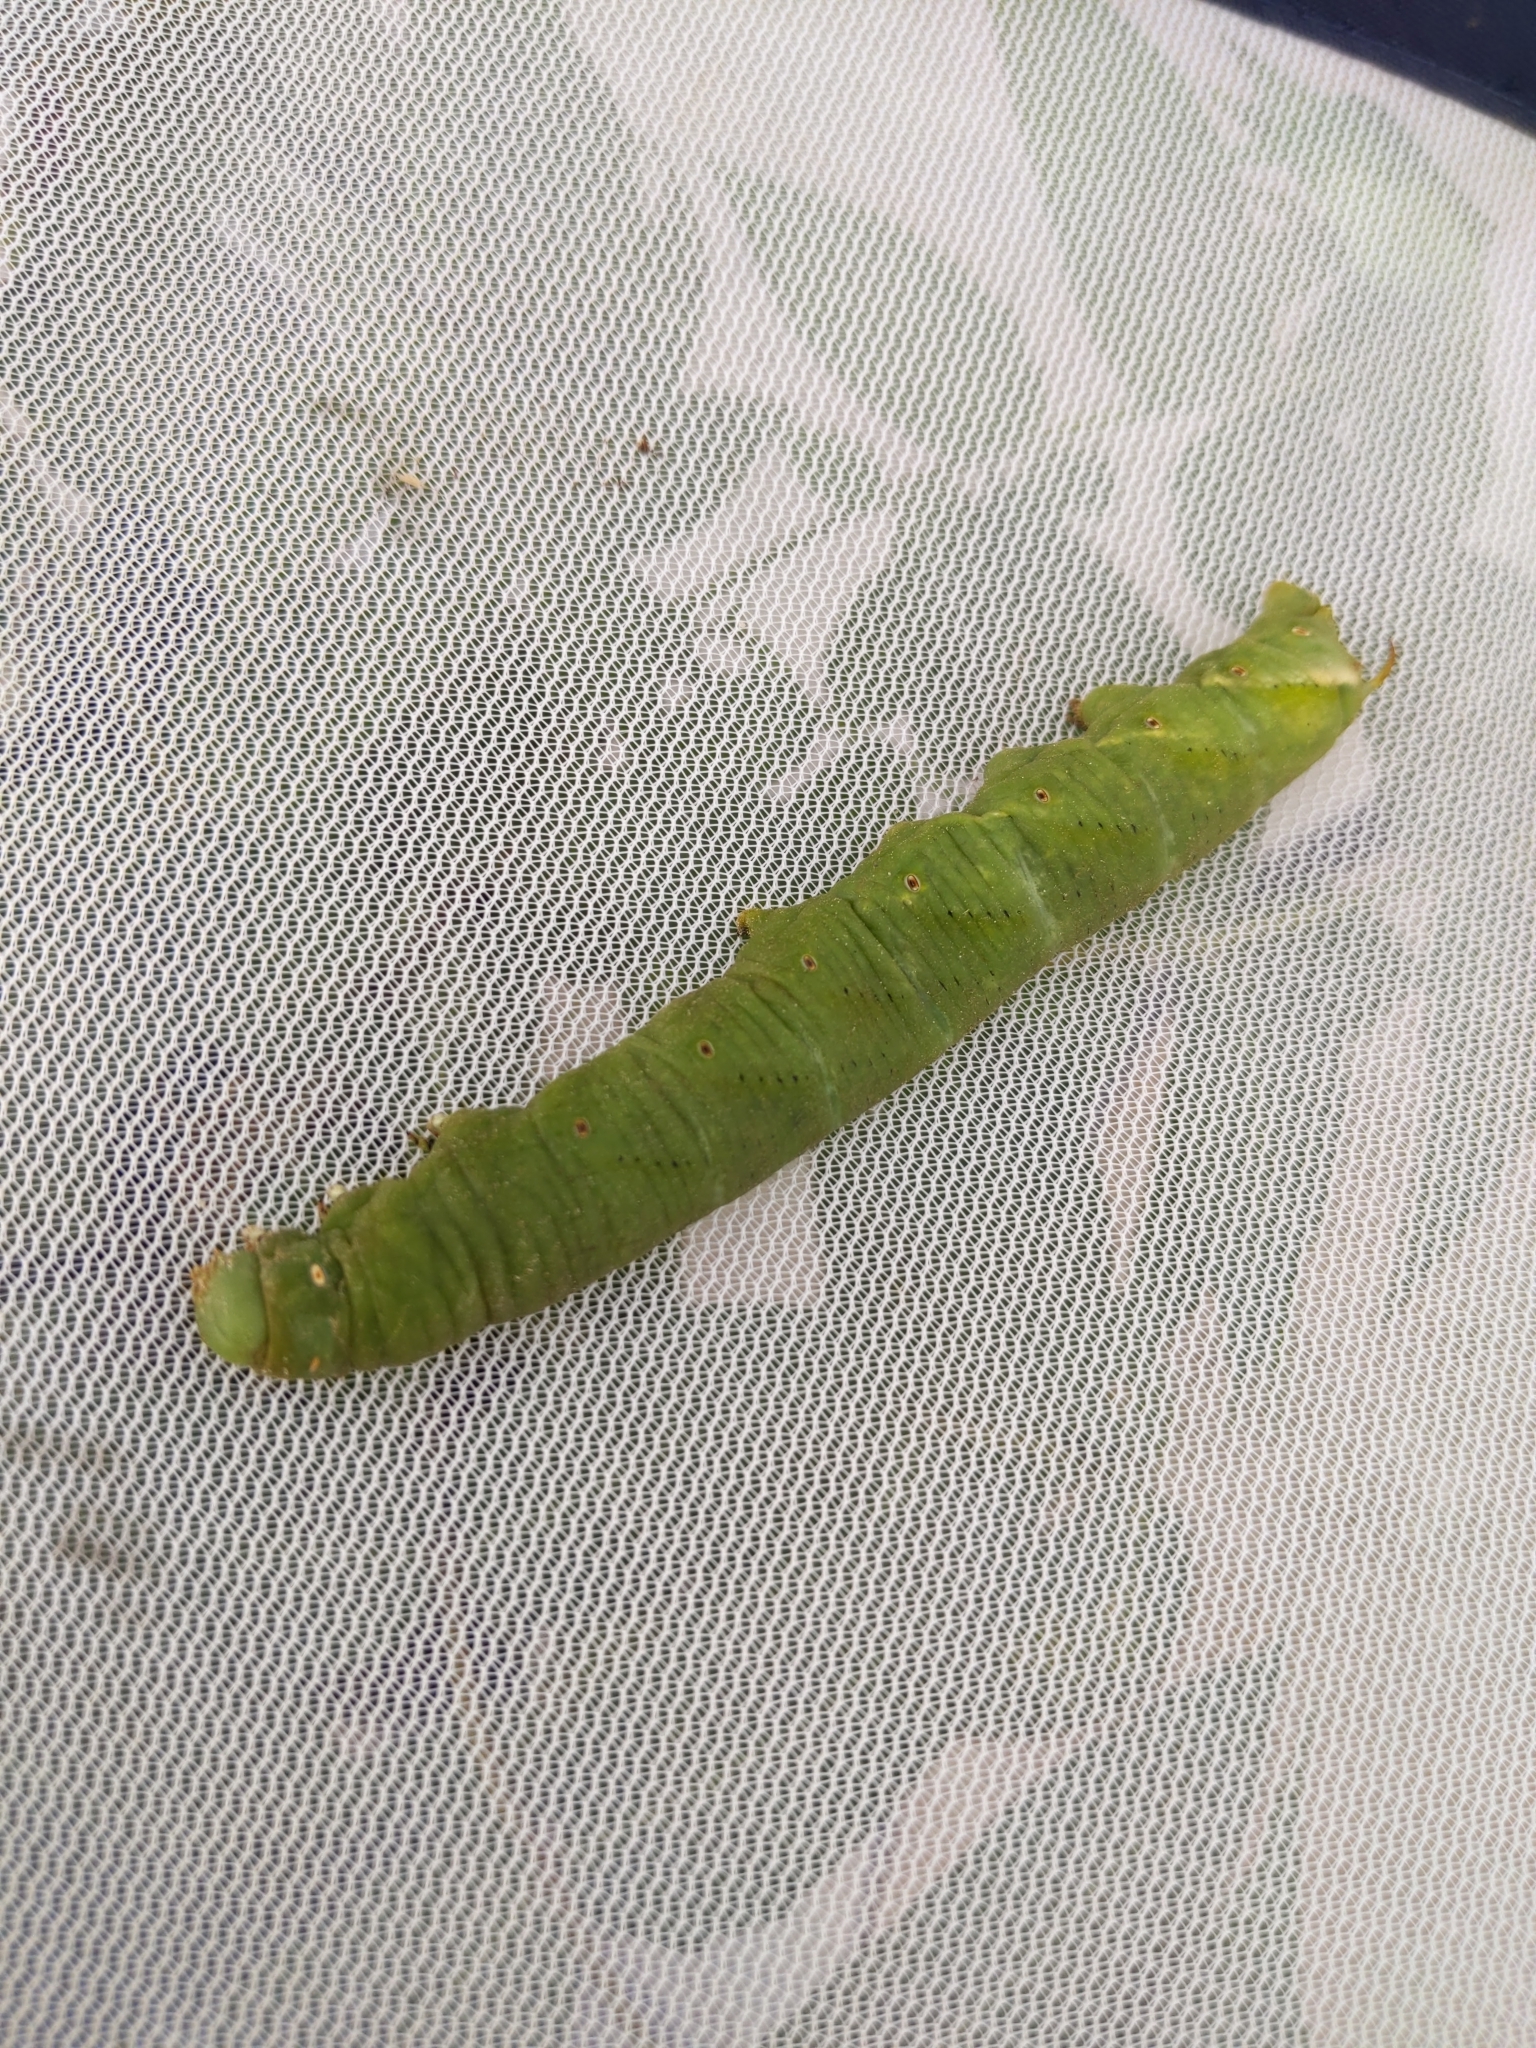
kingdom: Animalia
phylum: Arthropoda
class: Insecta
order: Lepidoptera
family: Sphingidae
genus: Manduca
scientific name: Manduca sexta
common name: Carolina sphinx
